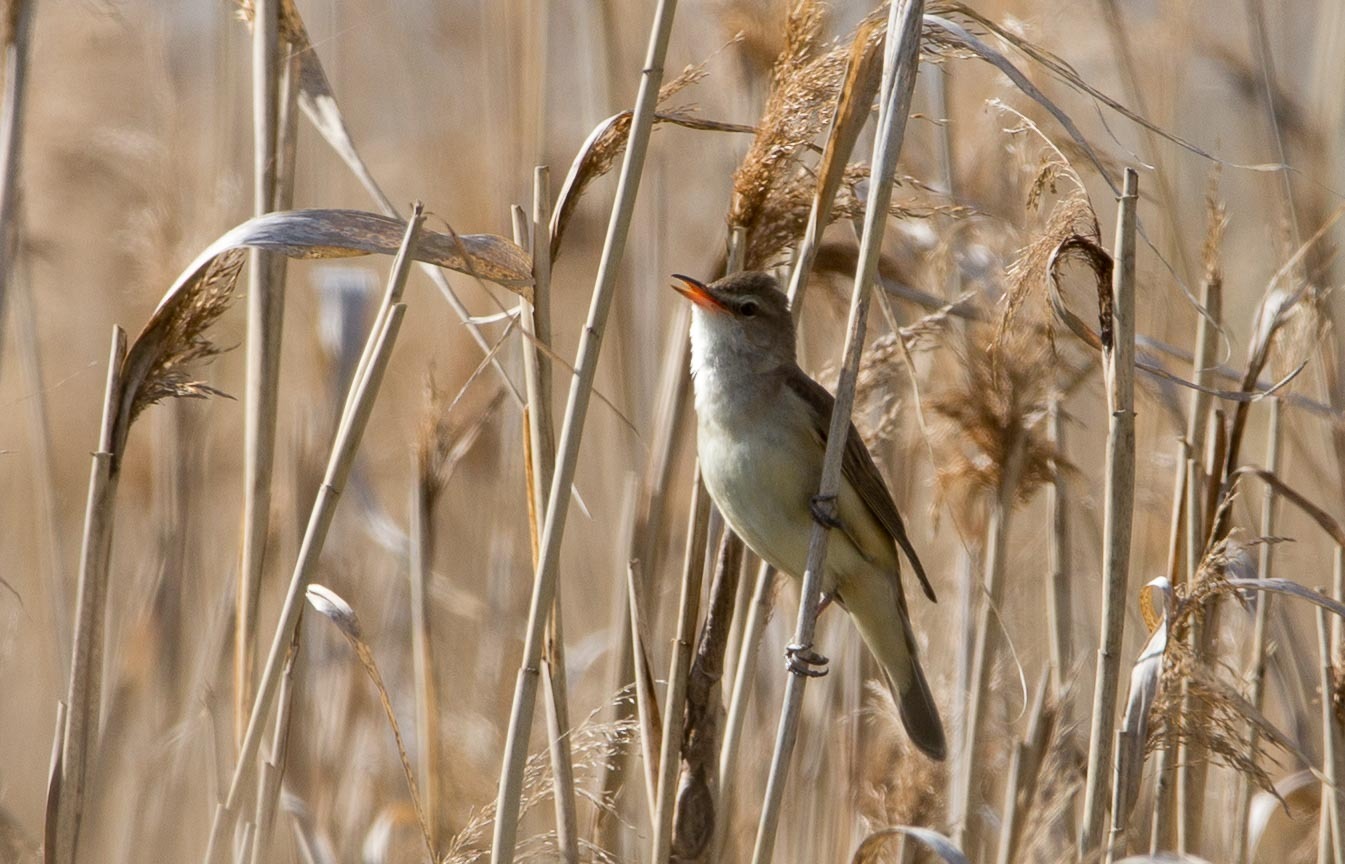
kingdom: Animalia
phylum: Chordata
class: Aves
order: Passeriformes
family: Acrocephalidae
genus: Acrocephalus
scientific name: Acrocephalus arundinaceus
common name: Great reed warbler
